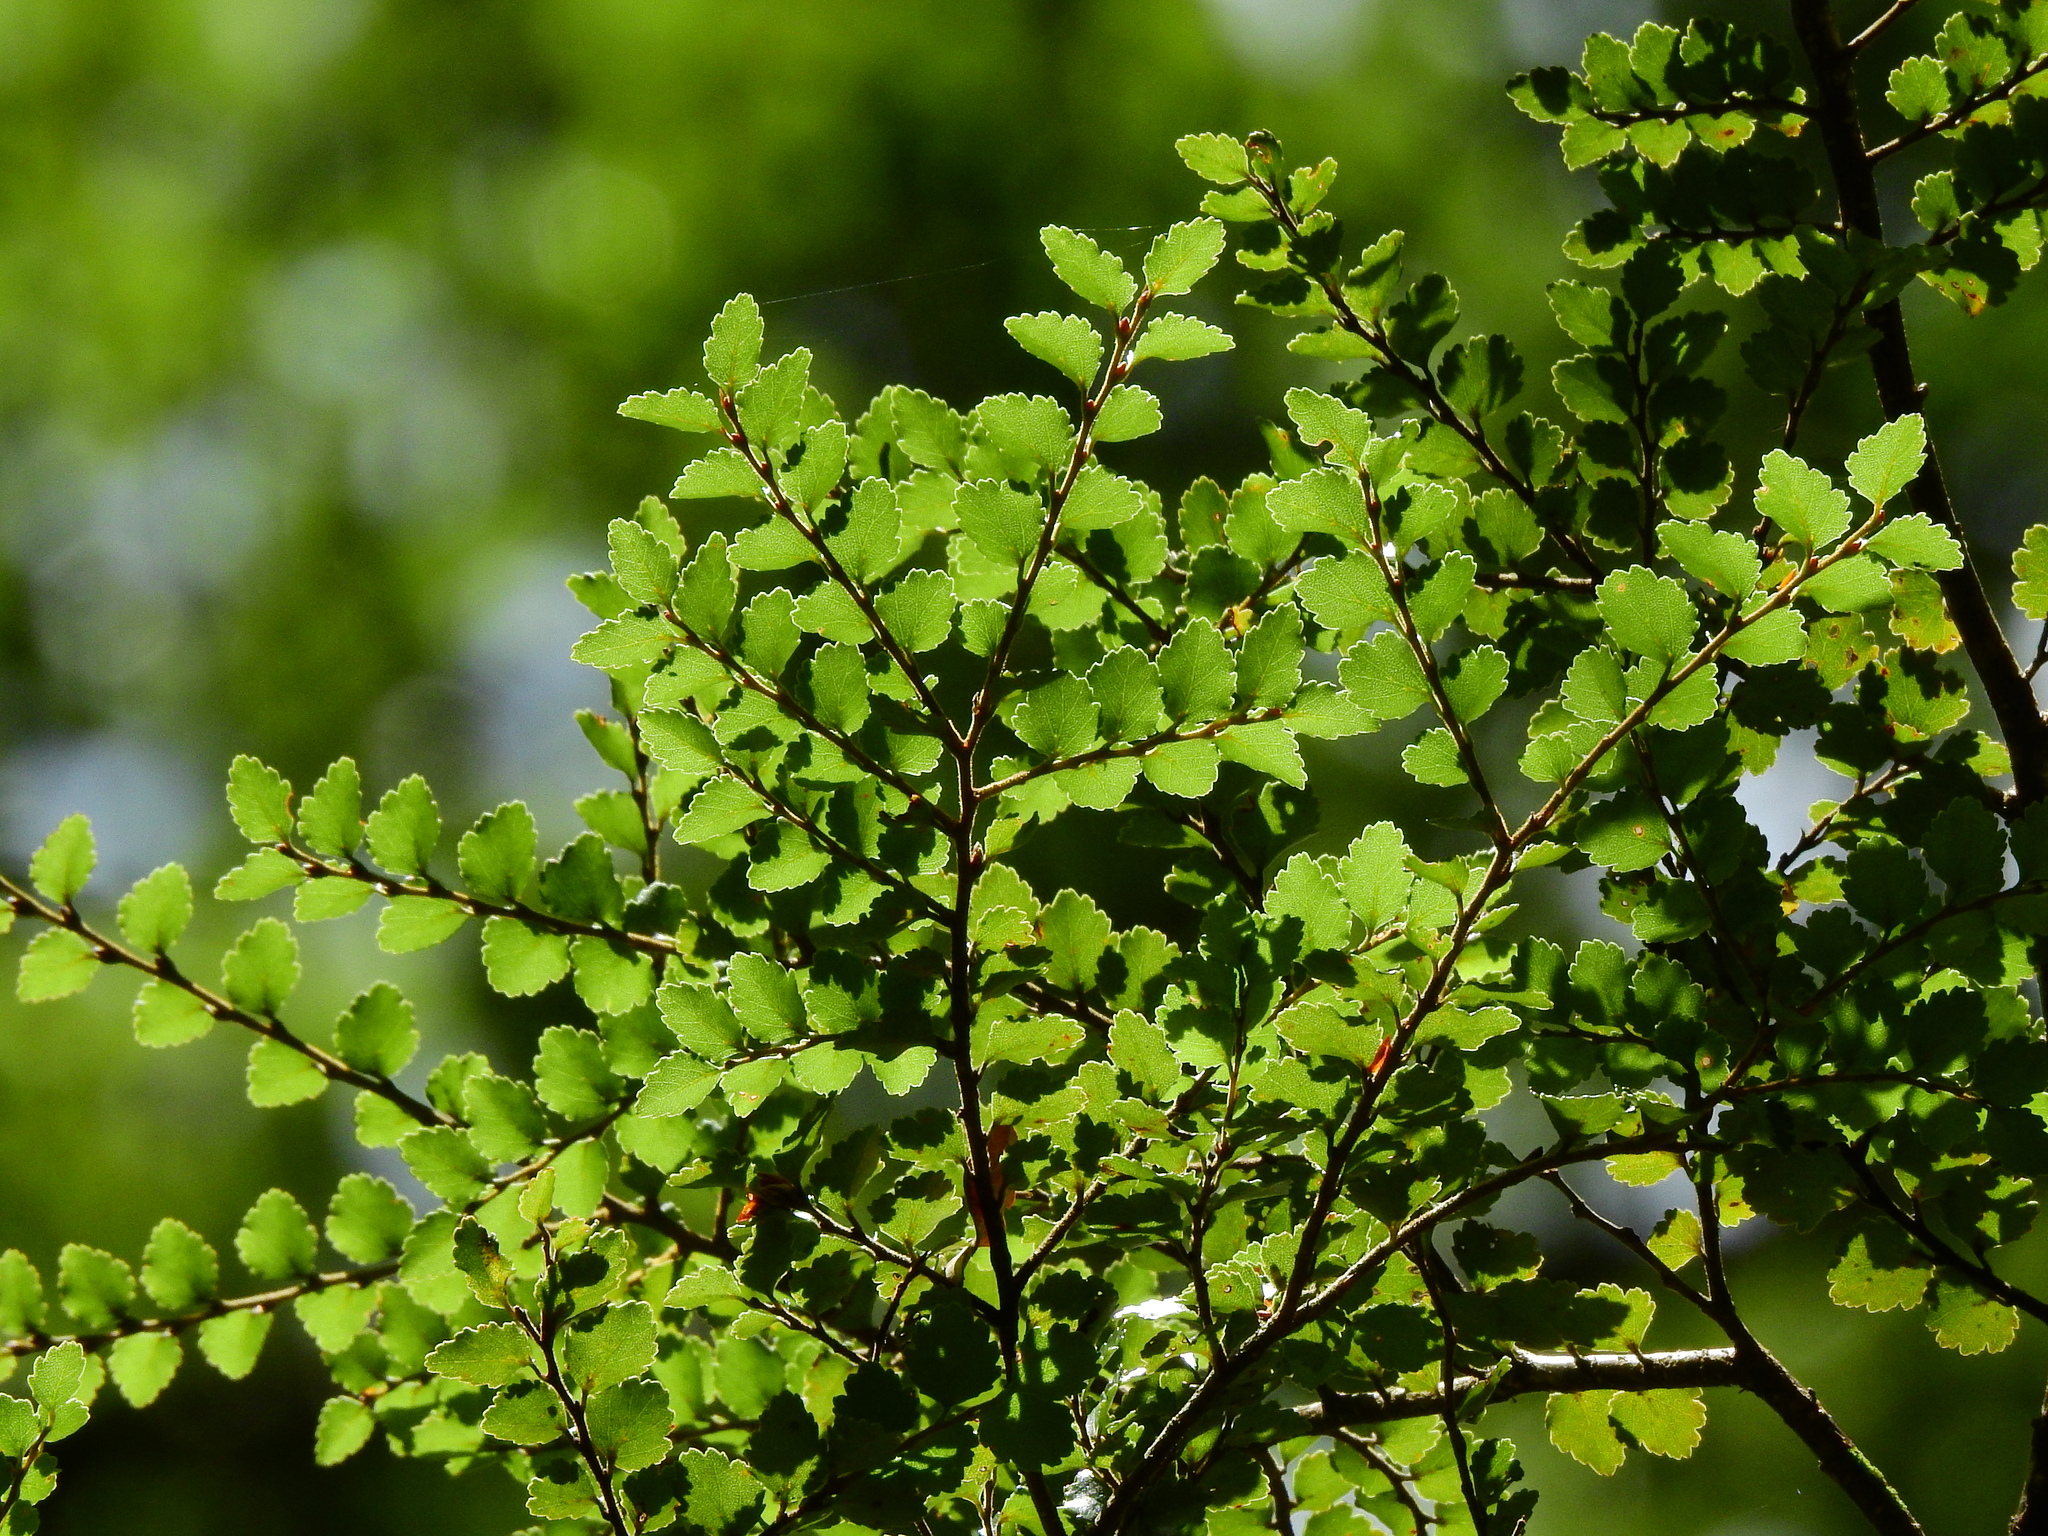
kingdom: Plantae
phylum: Tracheophyta
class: Magnoliopsida
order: Fagales
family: Nothofagaceae
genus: Nothofagus
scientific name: Nothofagus menziesii
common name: Silver beech
